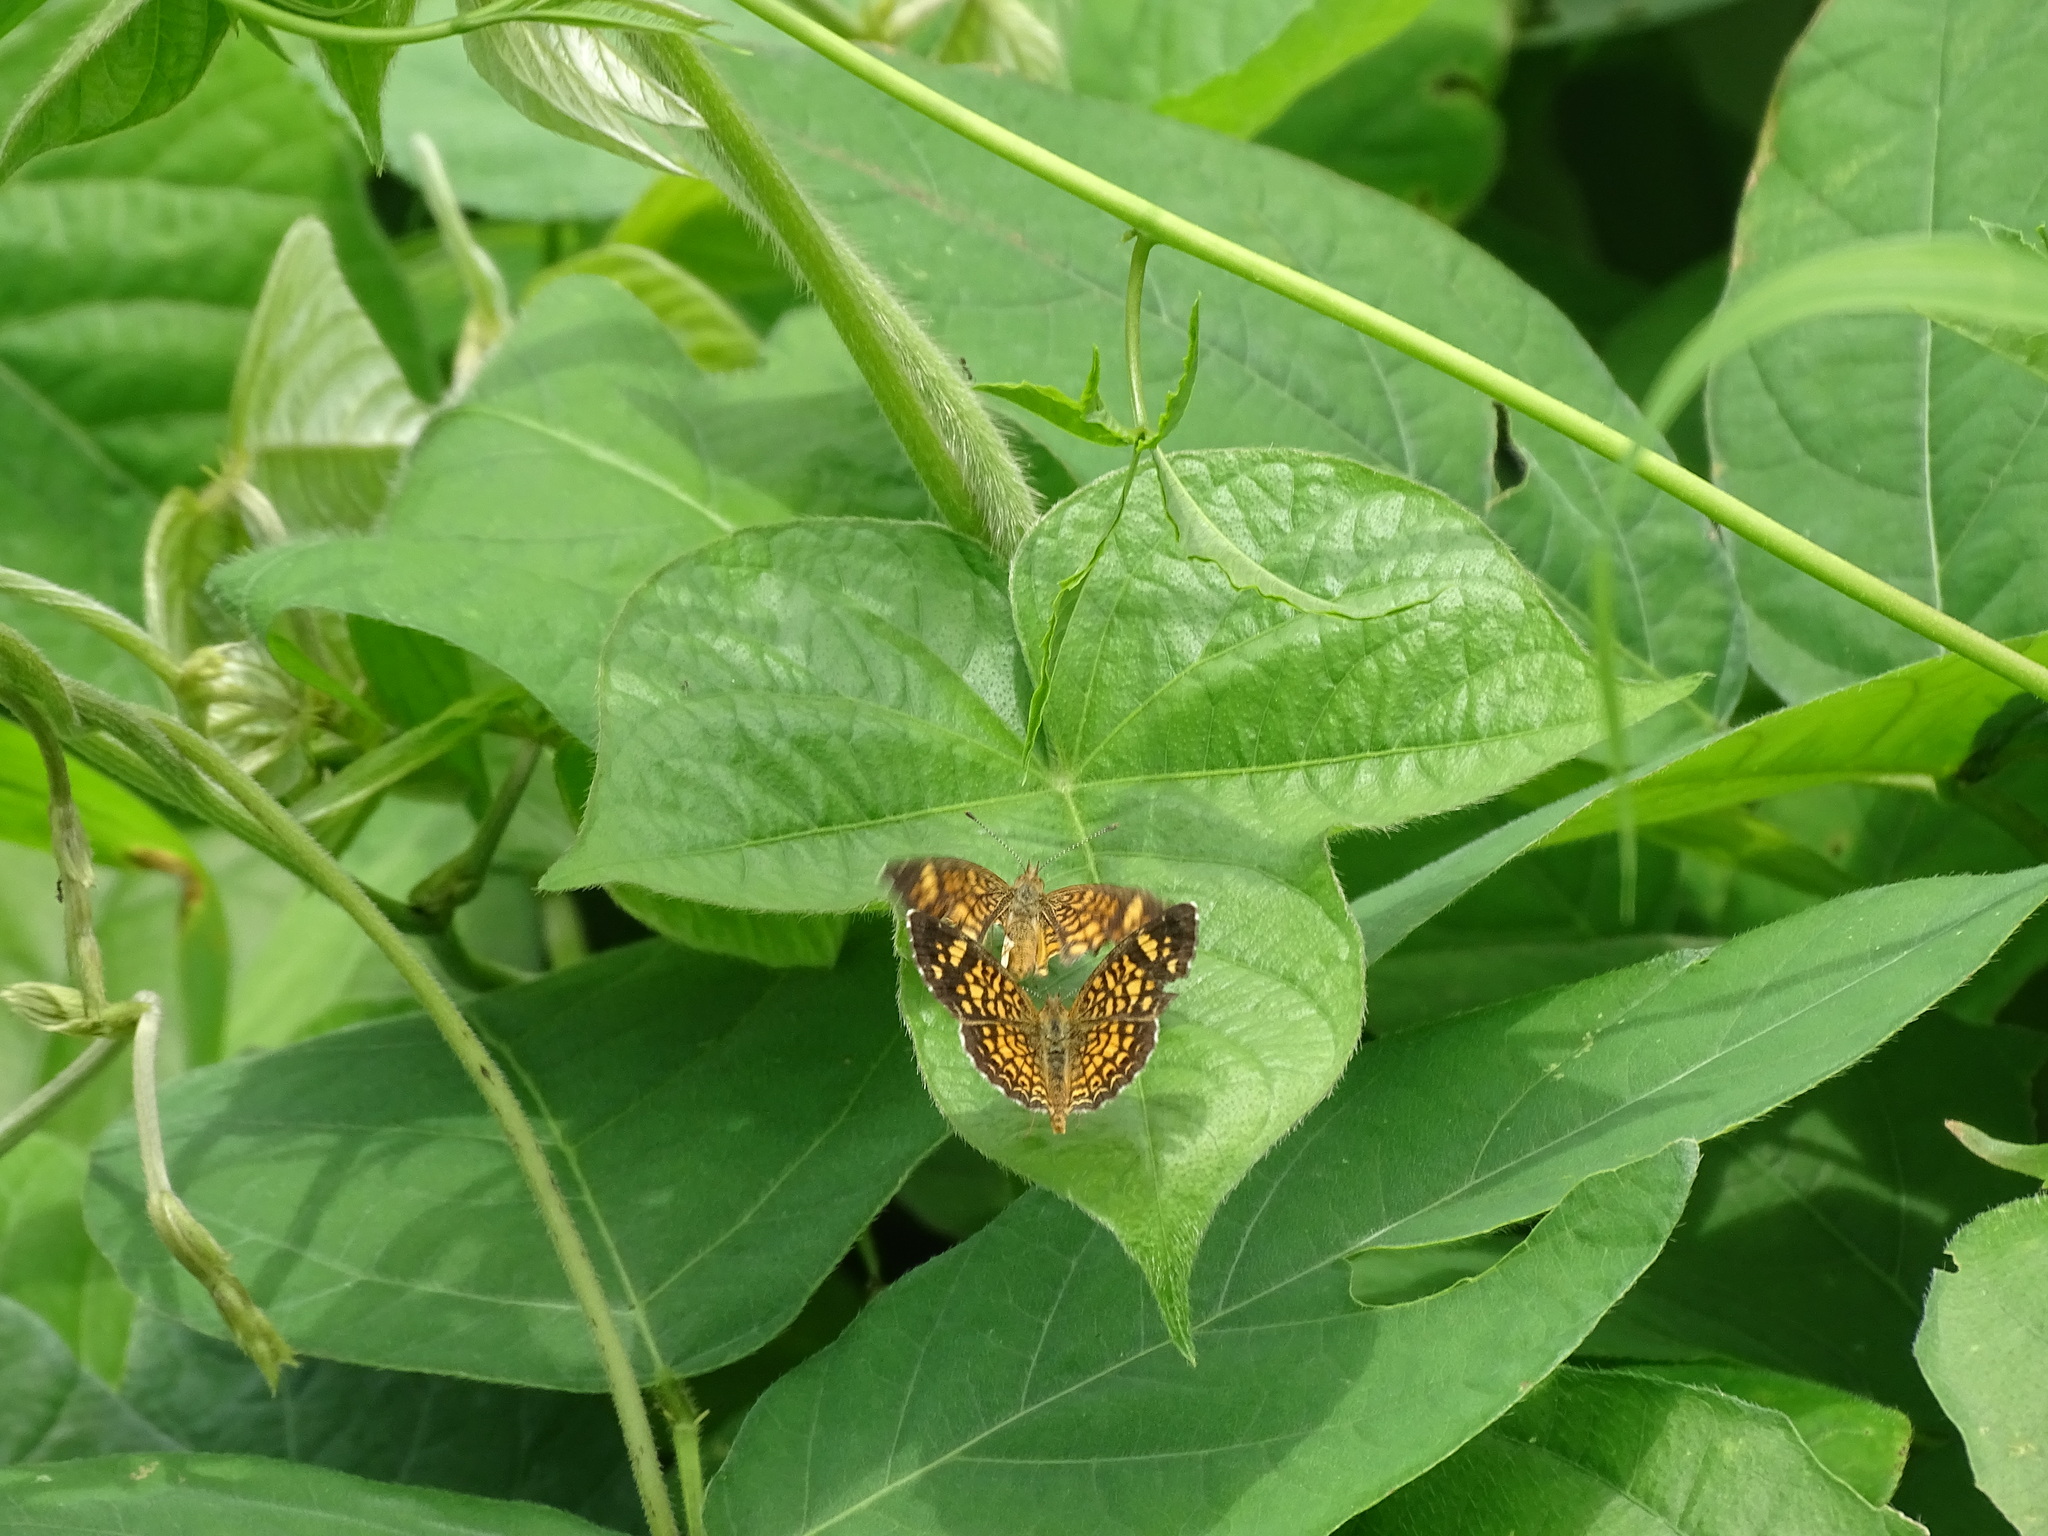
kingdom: Animalia
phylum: Arthropoda
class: Insecta
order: Lepidoptera
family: Nymphalidae
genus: Phyciodes
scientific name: Phyciodes vesta
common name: Vesta crescent
